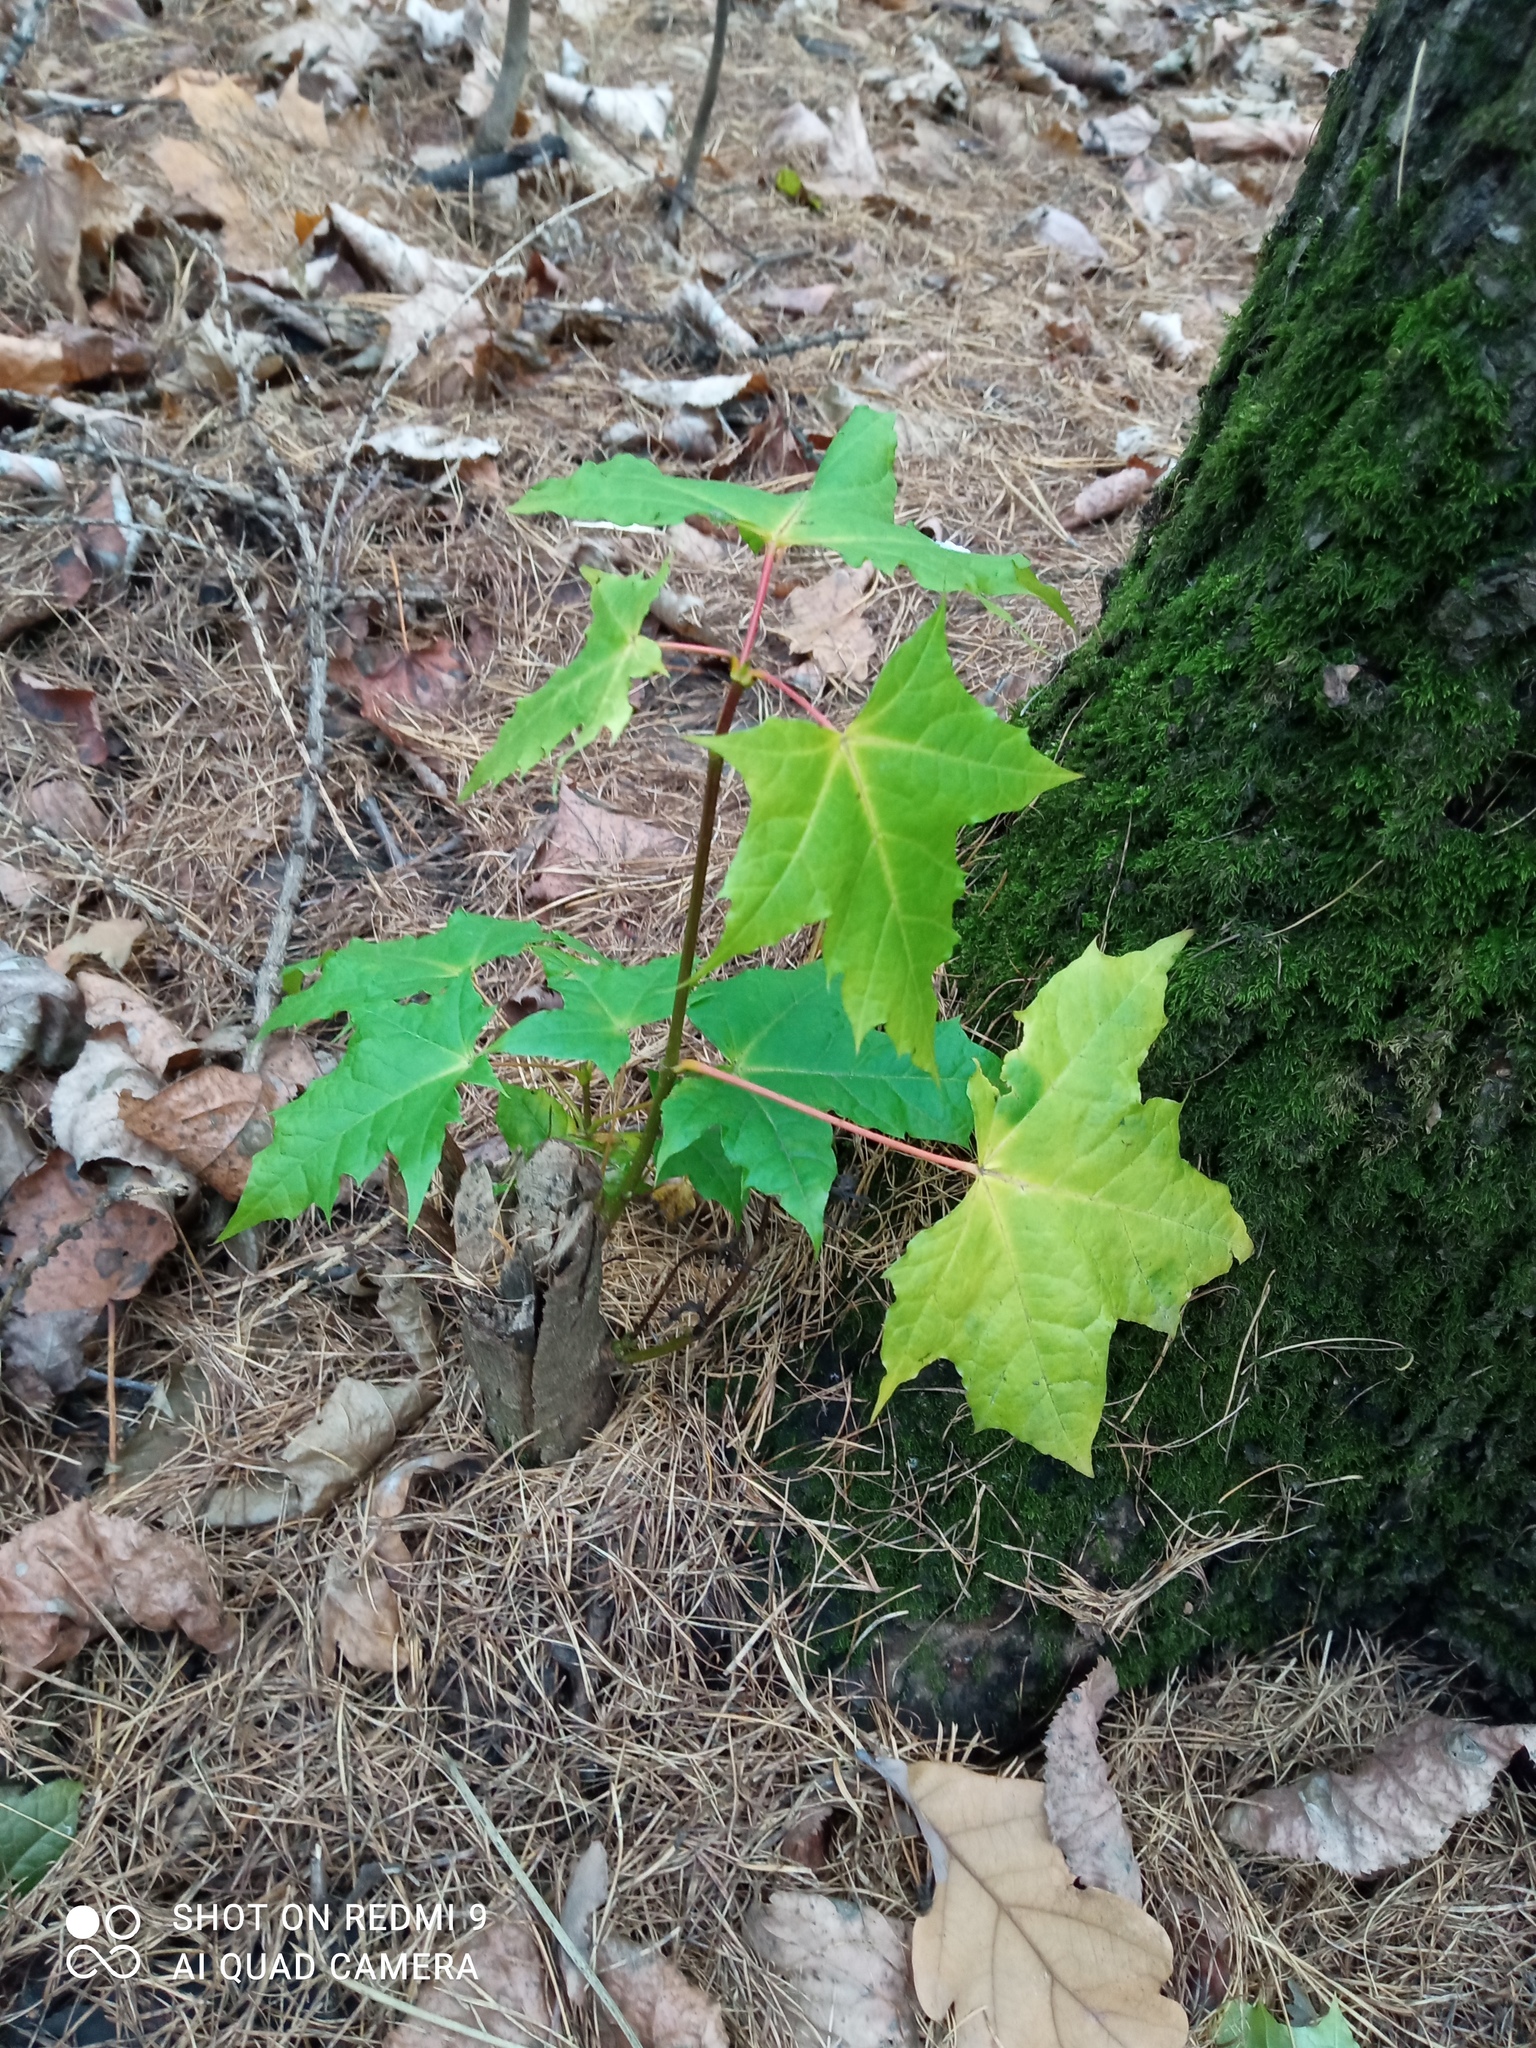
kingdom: Plantae
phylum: Tracheophyta
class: Magnoliopsida
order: Sapindales
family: Sapindaceae
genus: Acer
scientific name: Acer platanoides
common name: Norway maple
